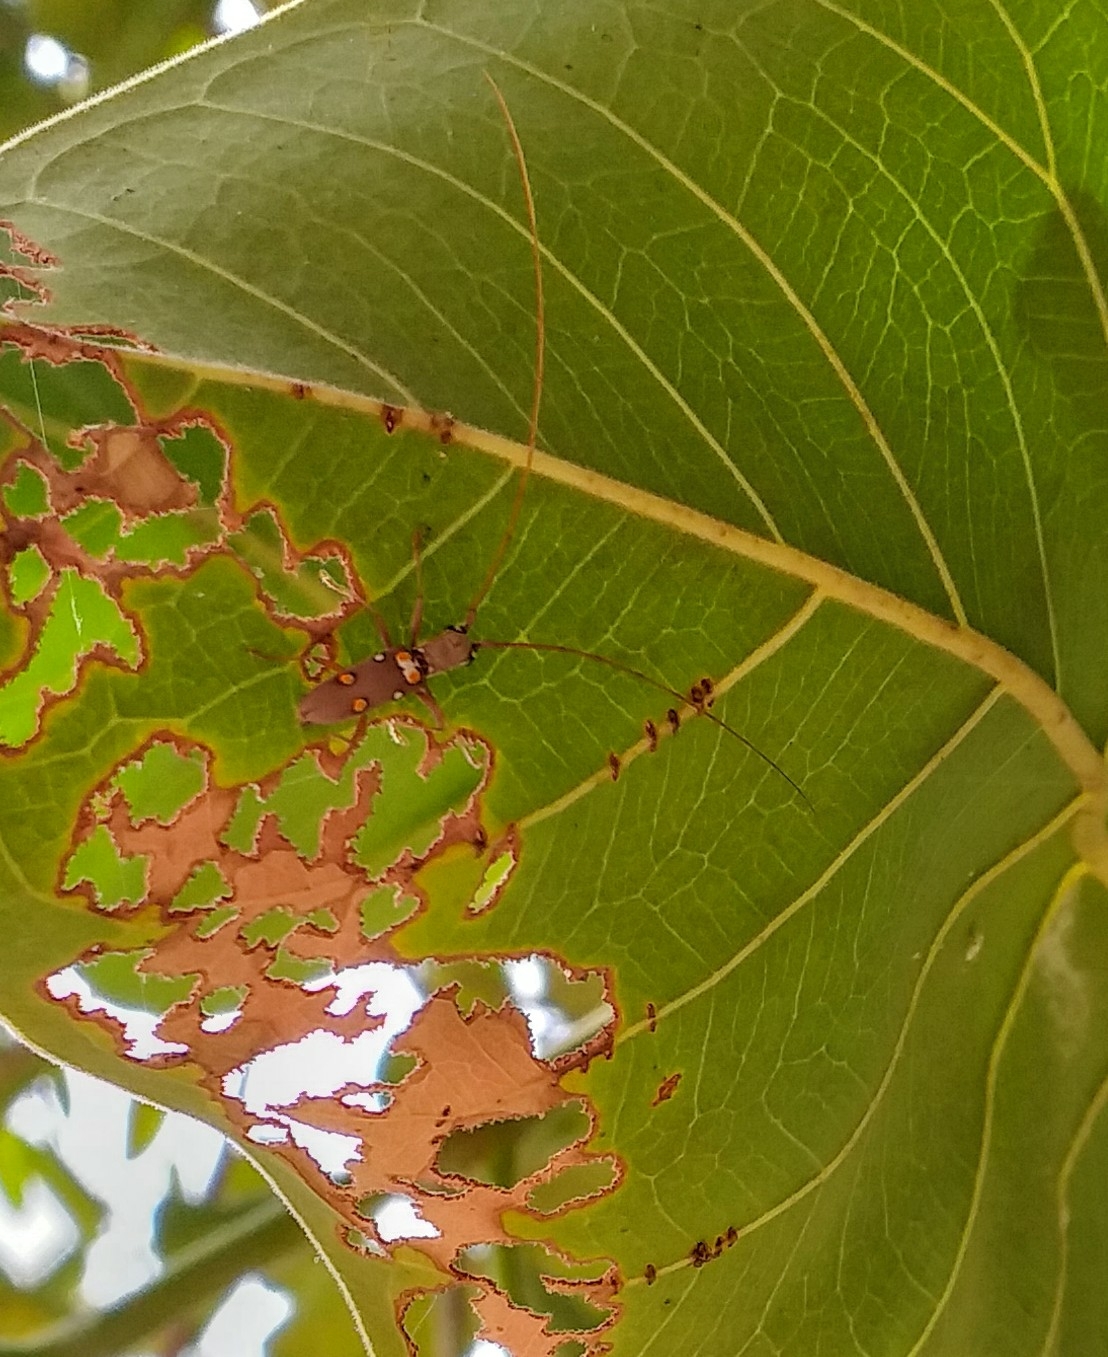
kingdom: Animalia
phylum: Arthropoda
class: Insecta
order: Coleoptera
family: Cerambycidae
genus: Olenecamptus
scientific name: Olenecamptus bilobus
